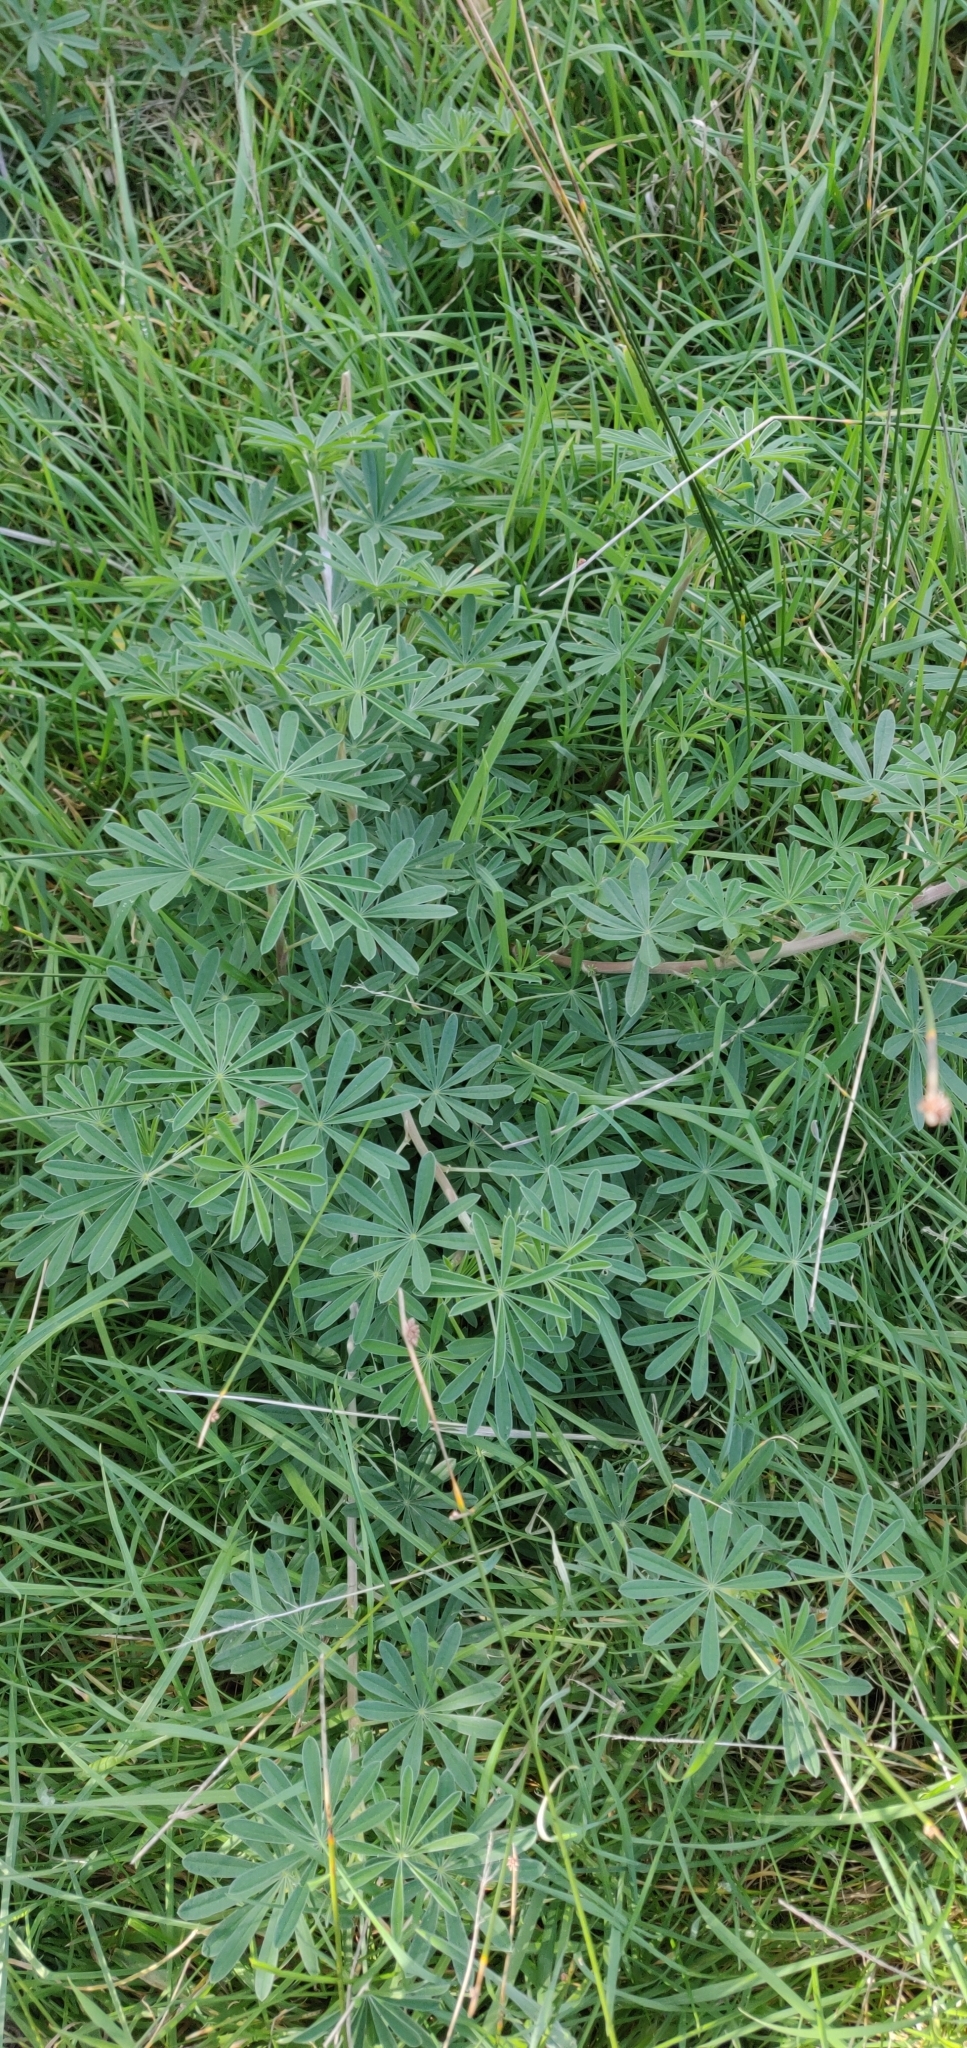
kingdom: Plantae
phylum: Tracheophyta
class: Magnoliopsida
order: Fabales
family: Fabaceae
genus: Lupinus
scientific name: Lupinus arboreus
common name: Yellow bush lupine
